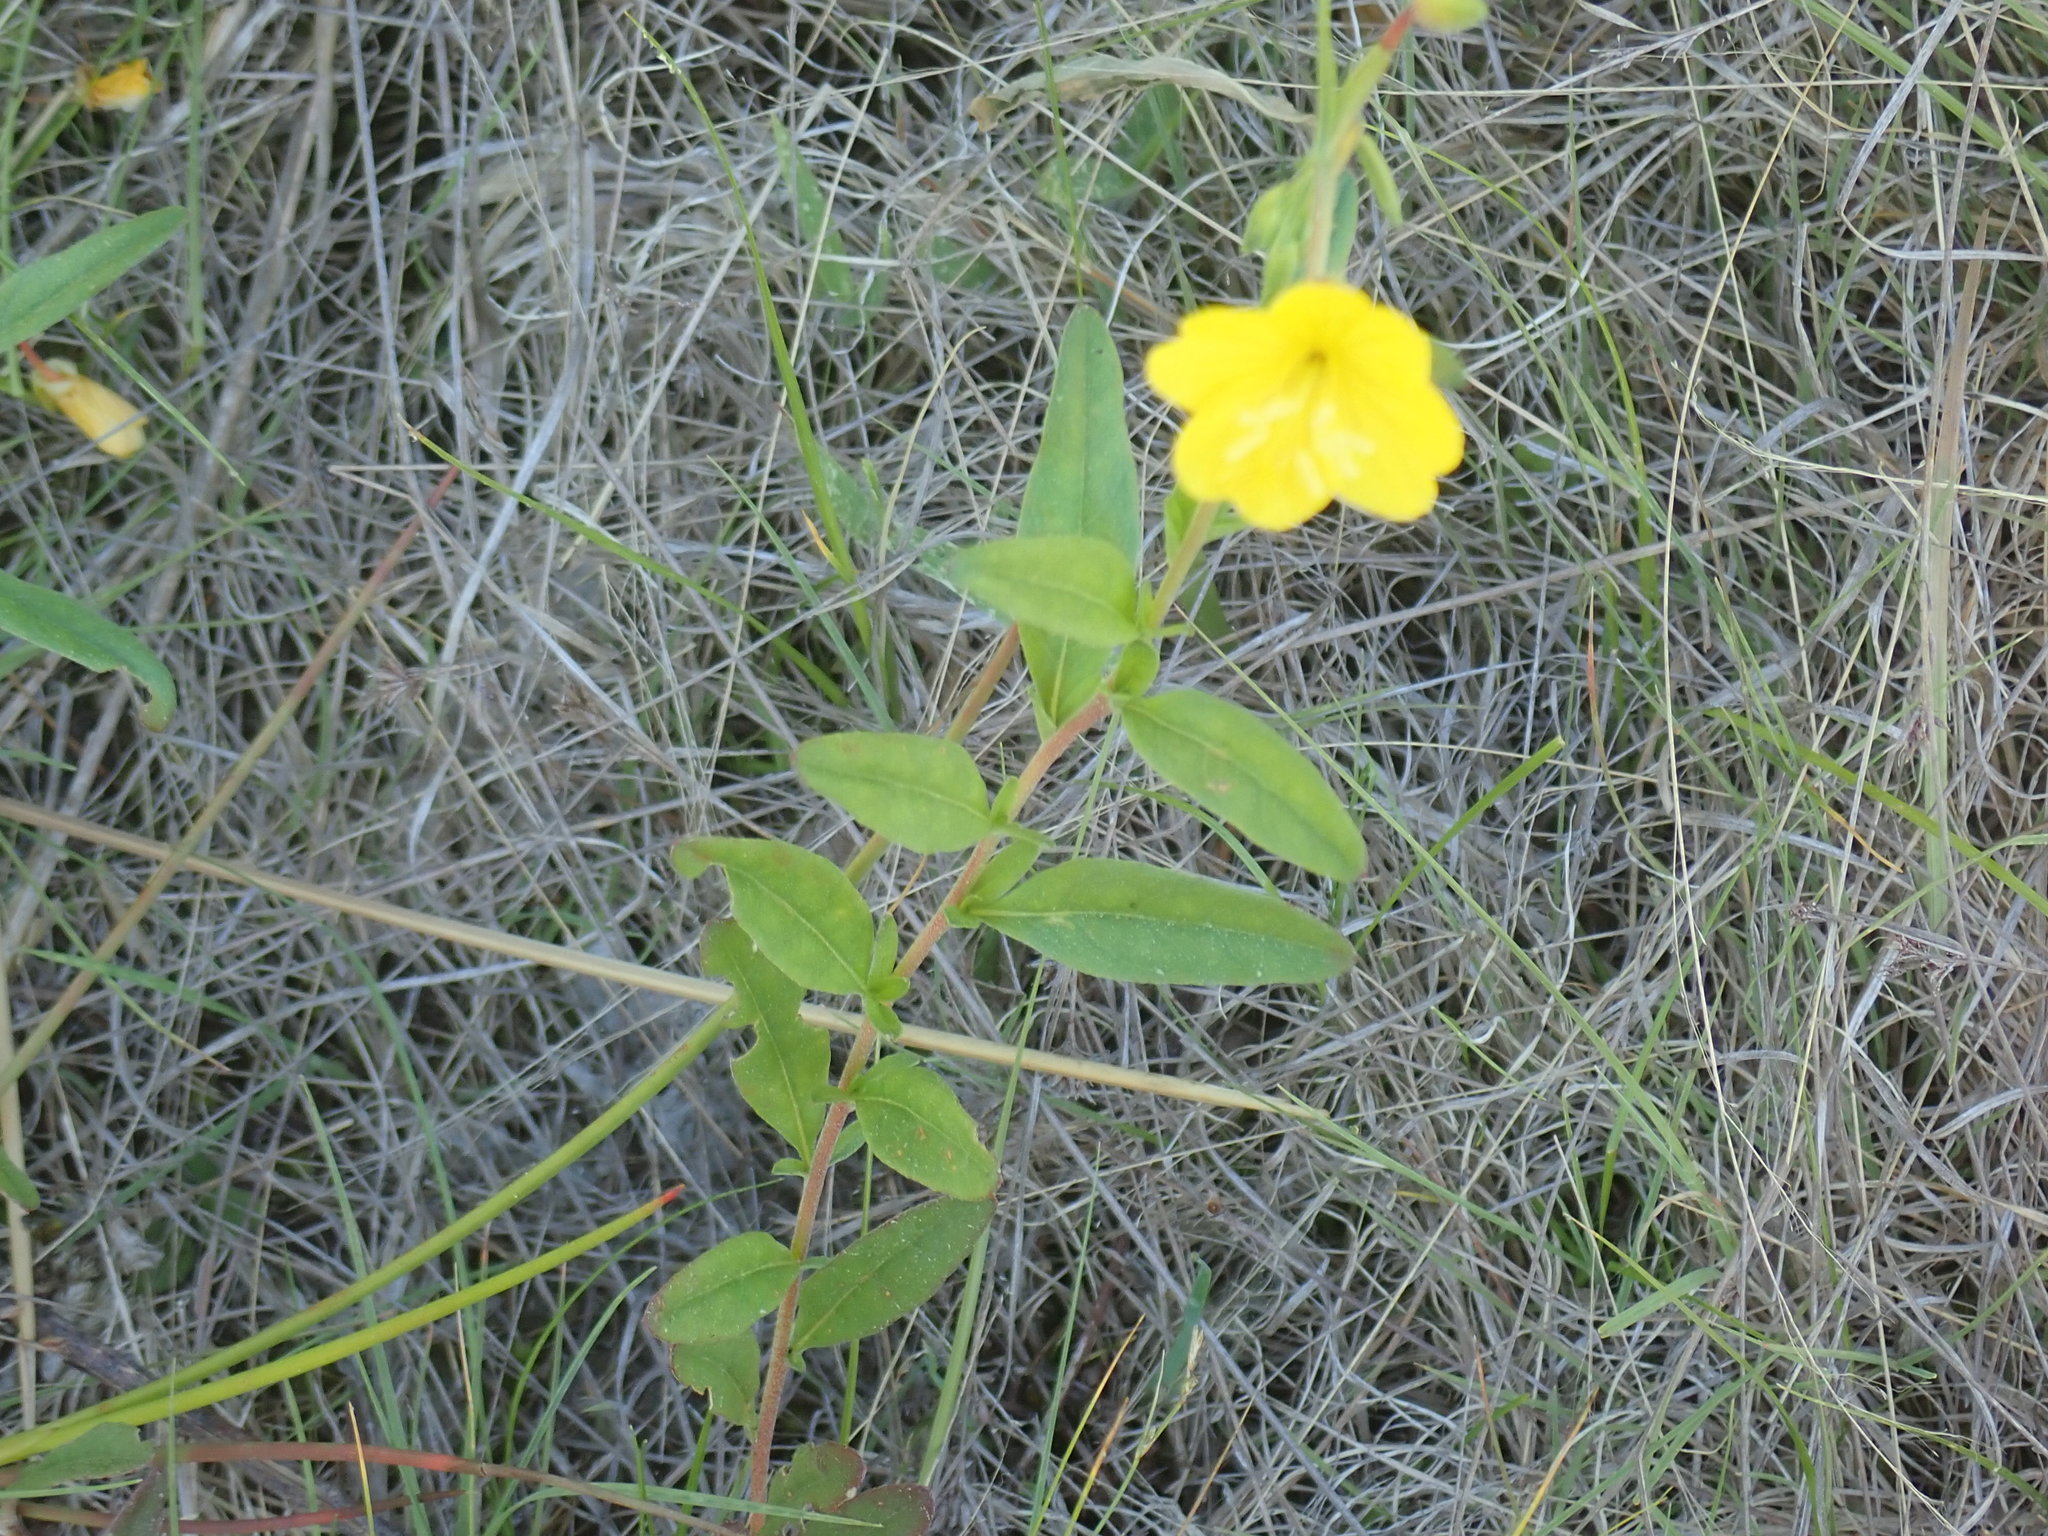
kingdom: Plantae
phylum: Tracheophyta
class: Magnoliopsida
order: Malvales
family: Cistaceae
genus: Crocanthemum
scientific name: Crocanthemum canadense
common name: Canada frostweed
